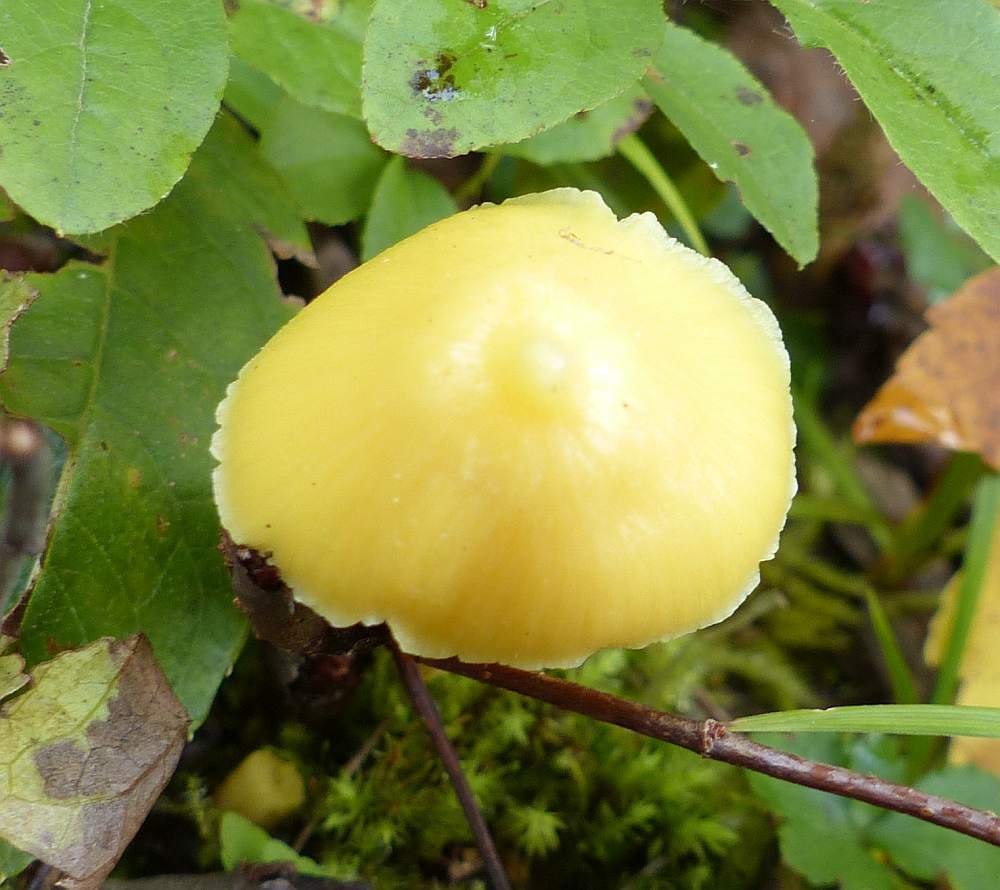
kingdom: Fungi
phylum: Basidiomycota
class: Agaricomycetes
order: Agaricales
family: Entolomataceae
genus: Entoloma
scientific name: Entoloma murrayi
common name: Yellow unicorn entoloma
